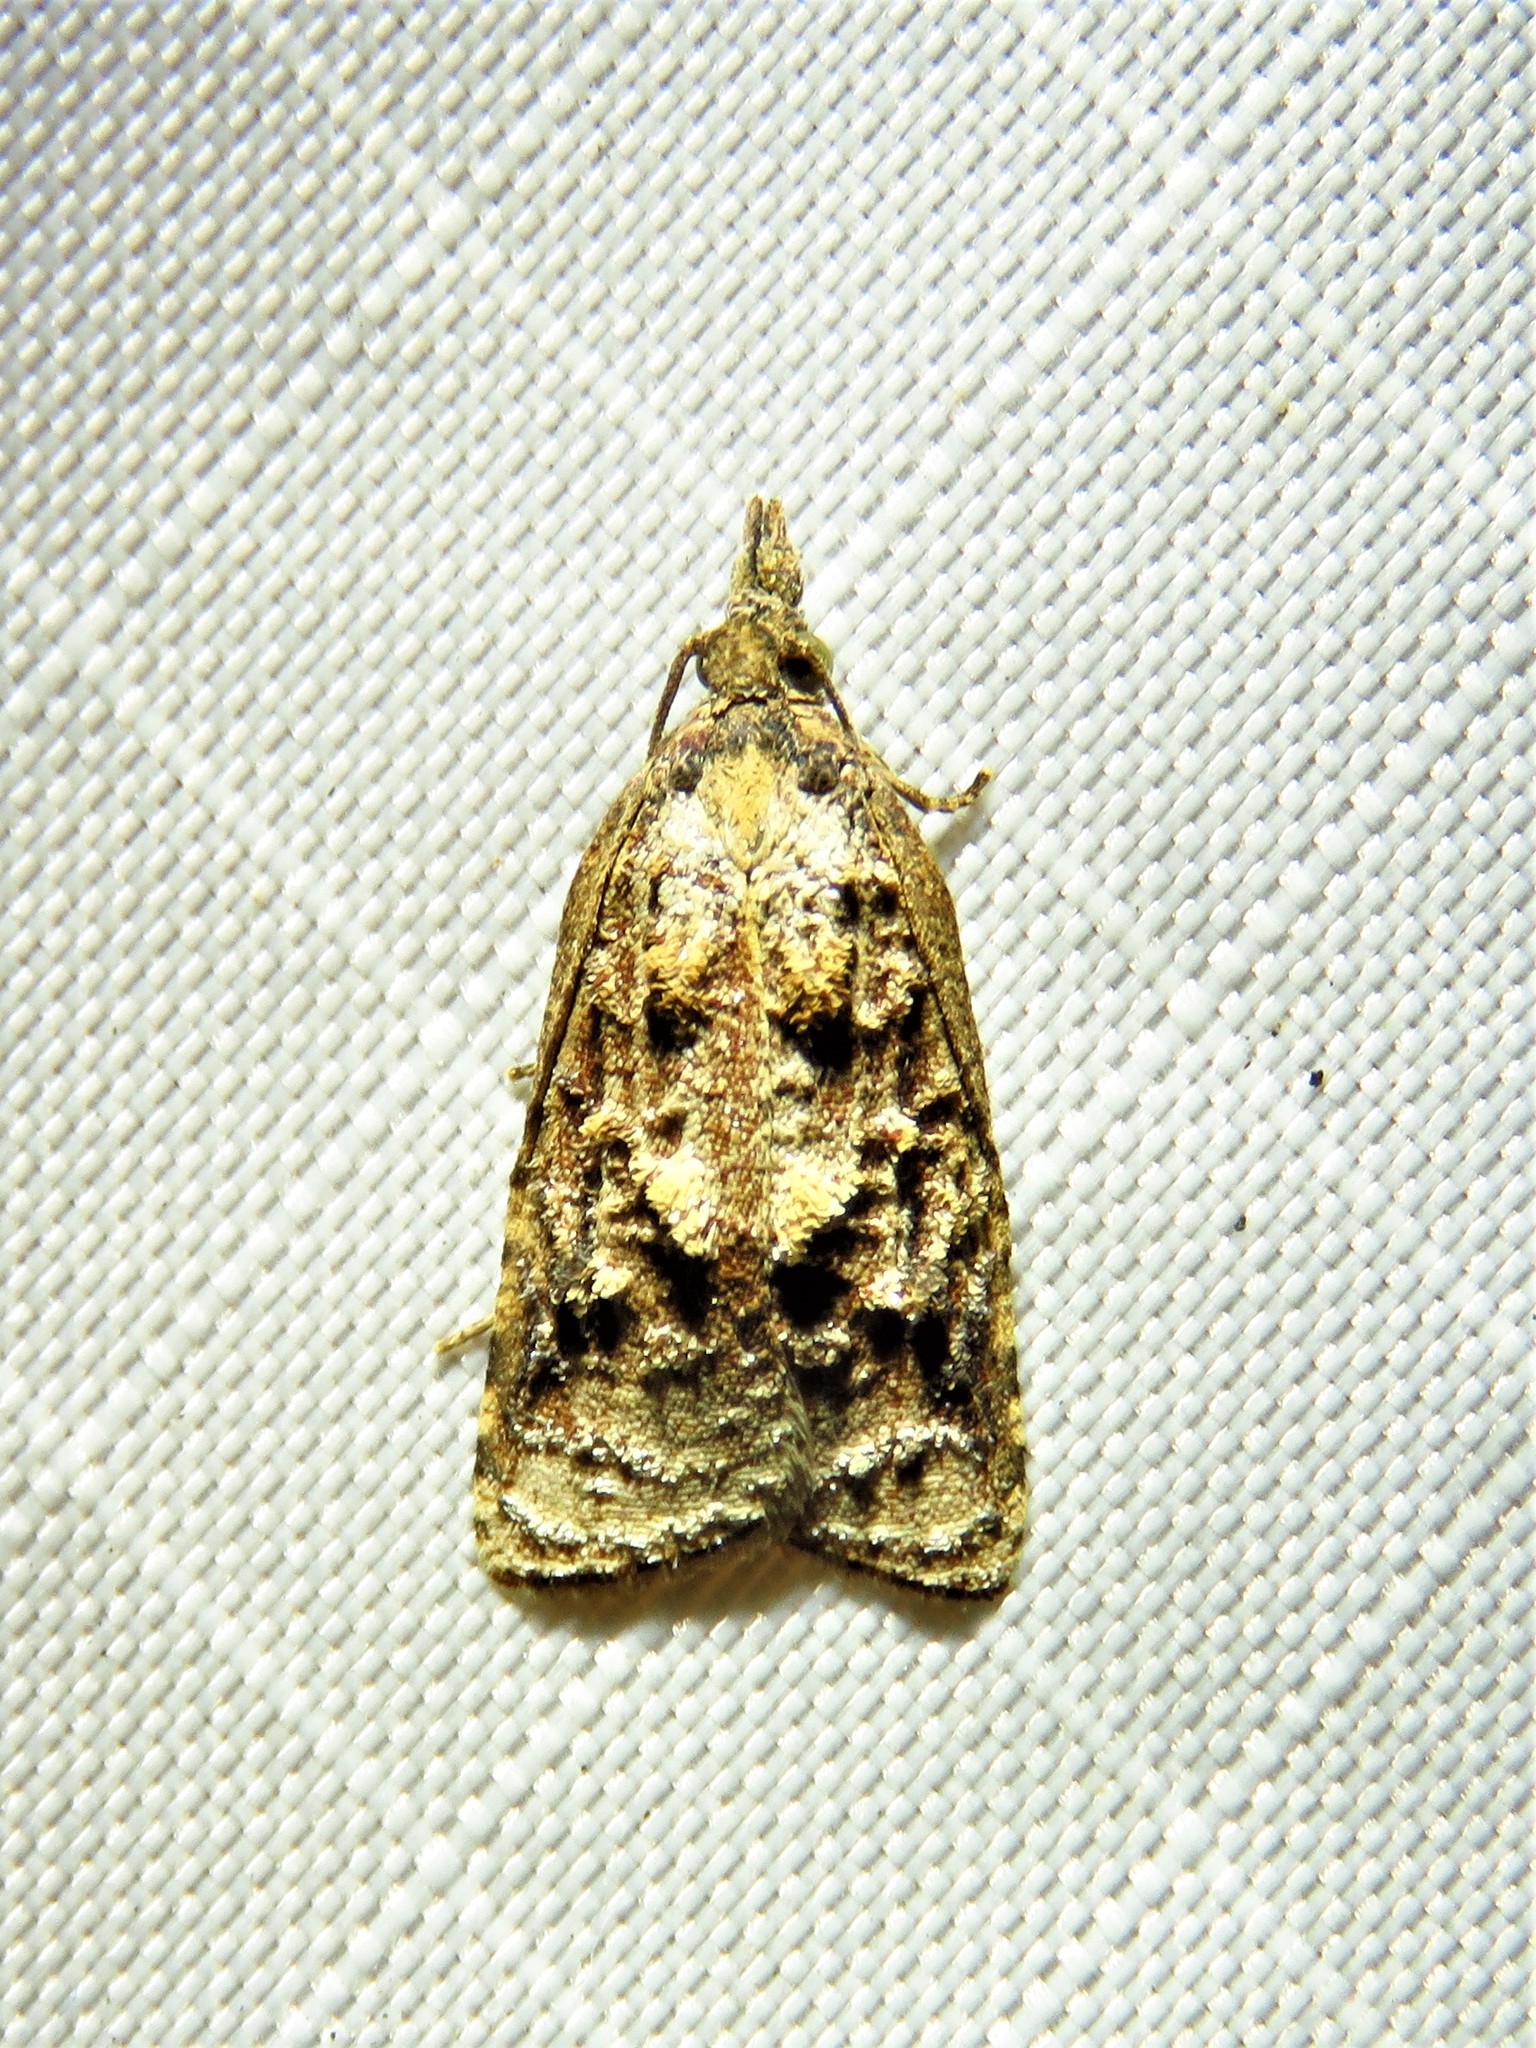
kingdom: Animalia
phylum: Arthropoda
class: Insecta
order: Lepidoptera
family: Tortricidae
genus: Platynota
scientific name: Platynota rostrana
